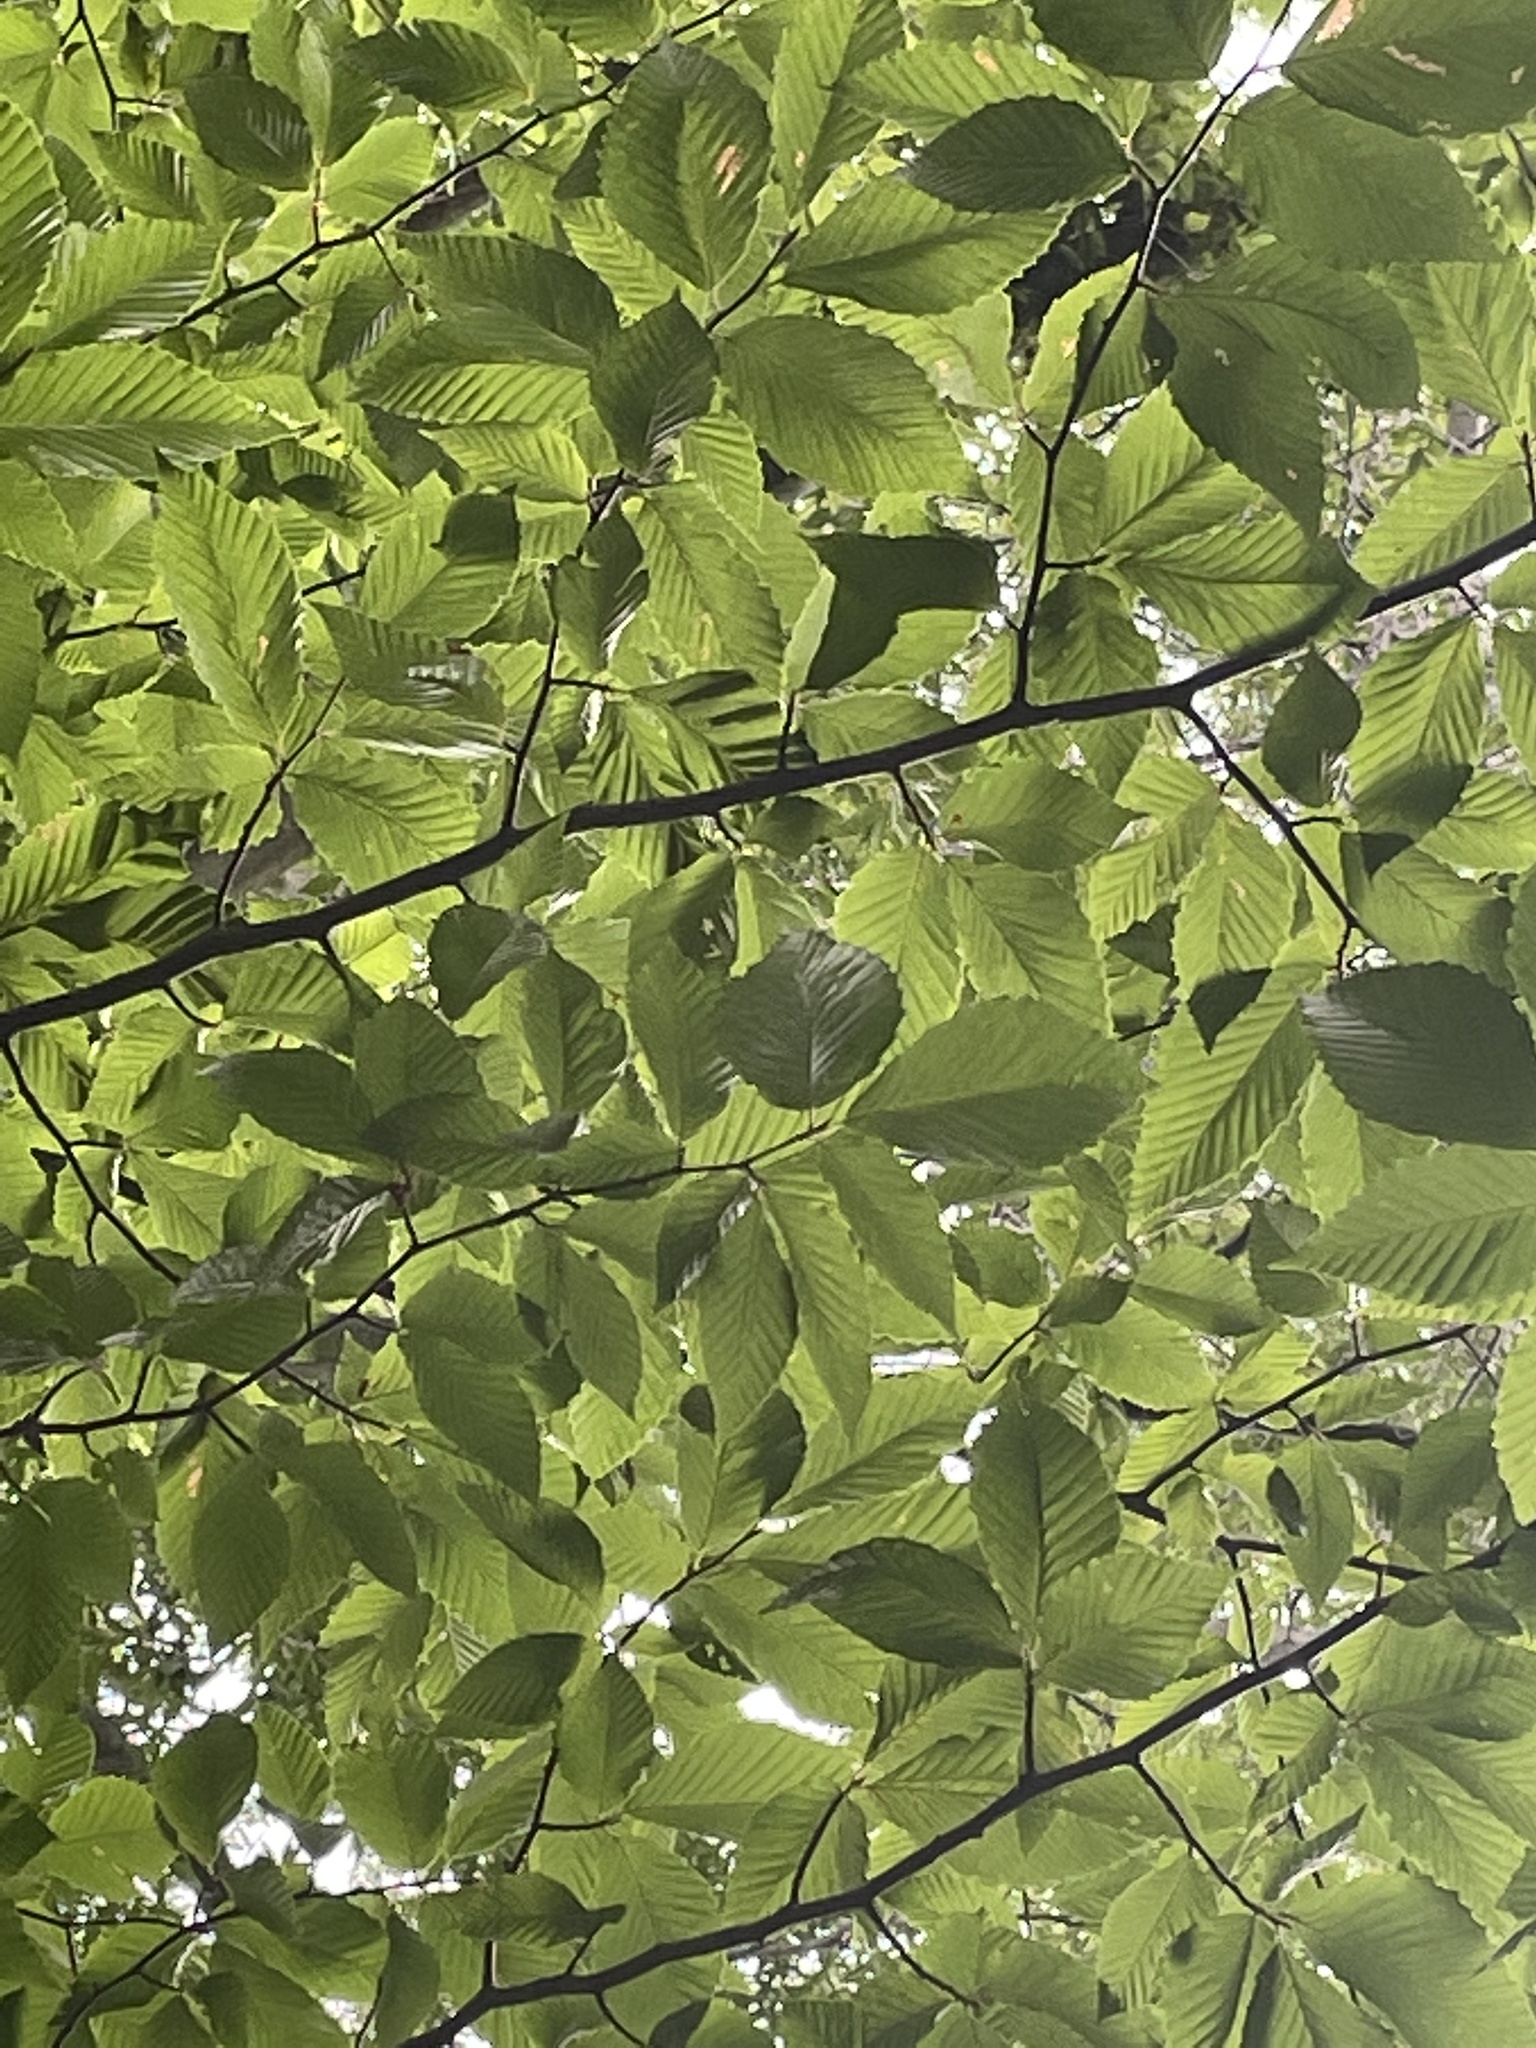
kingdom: Animalia
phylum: Nematoda
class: Chromadorea
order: Rhabditida
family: Anguinidae
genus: Litylenchus
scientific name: Litylenchus crenatae
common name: Beech leaf disease
